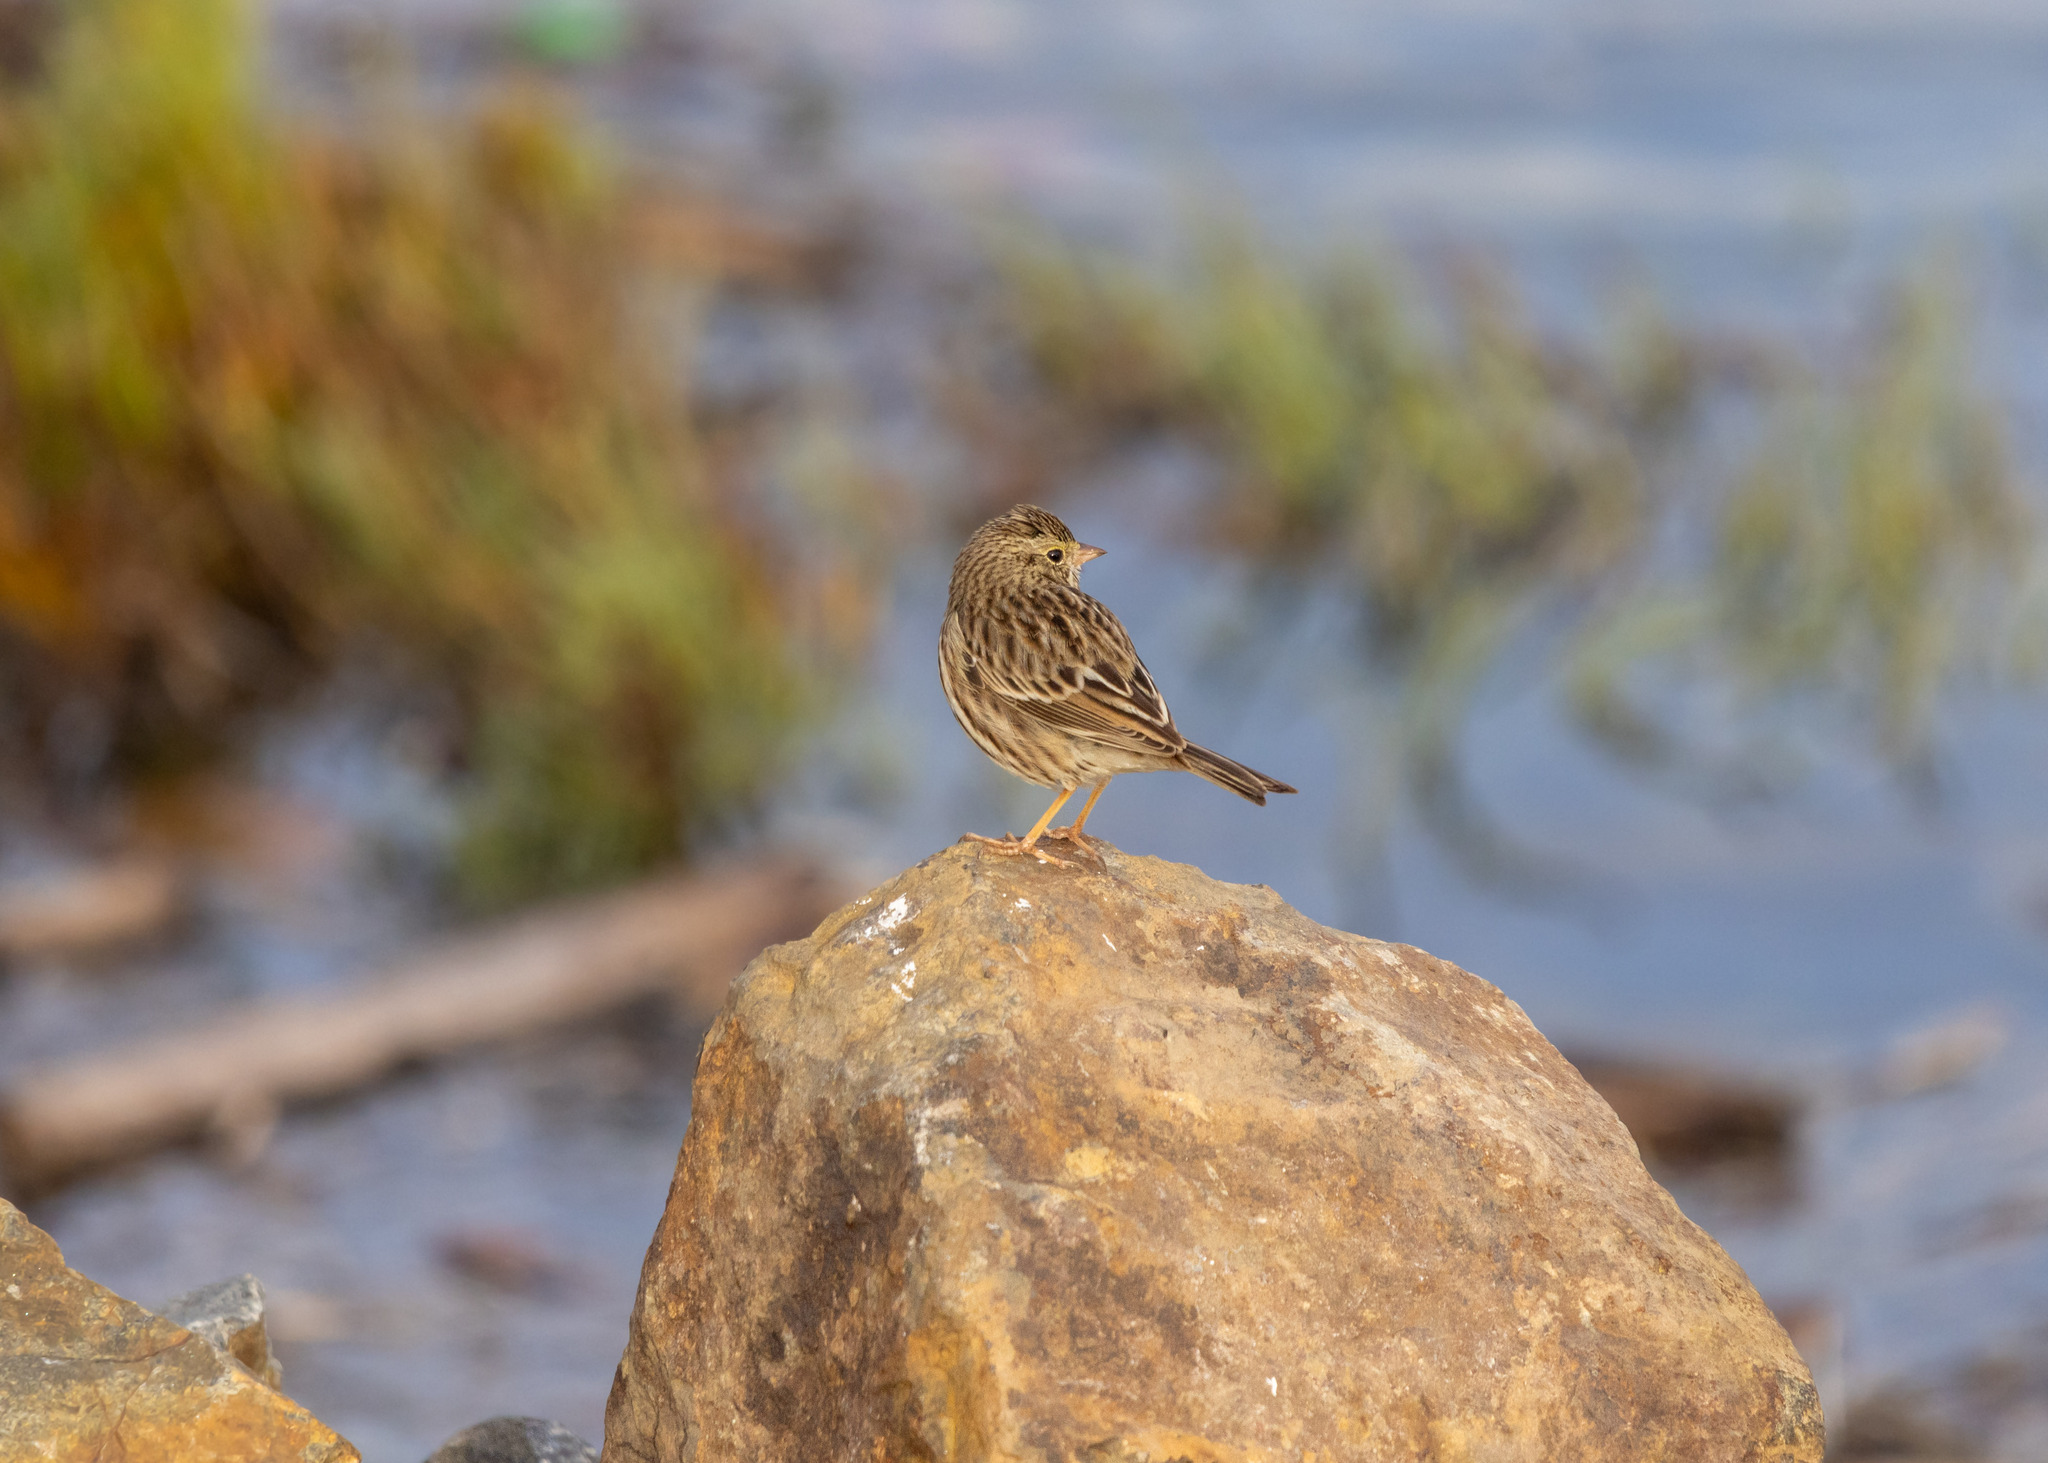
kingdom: Animalia
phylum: Chordata
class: Aves
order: Passeriformes
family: Passerellidae
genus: Passerculus
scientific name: Passerculus sandwichensis
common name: Savannah sparrow
